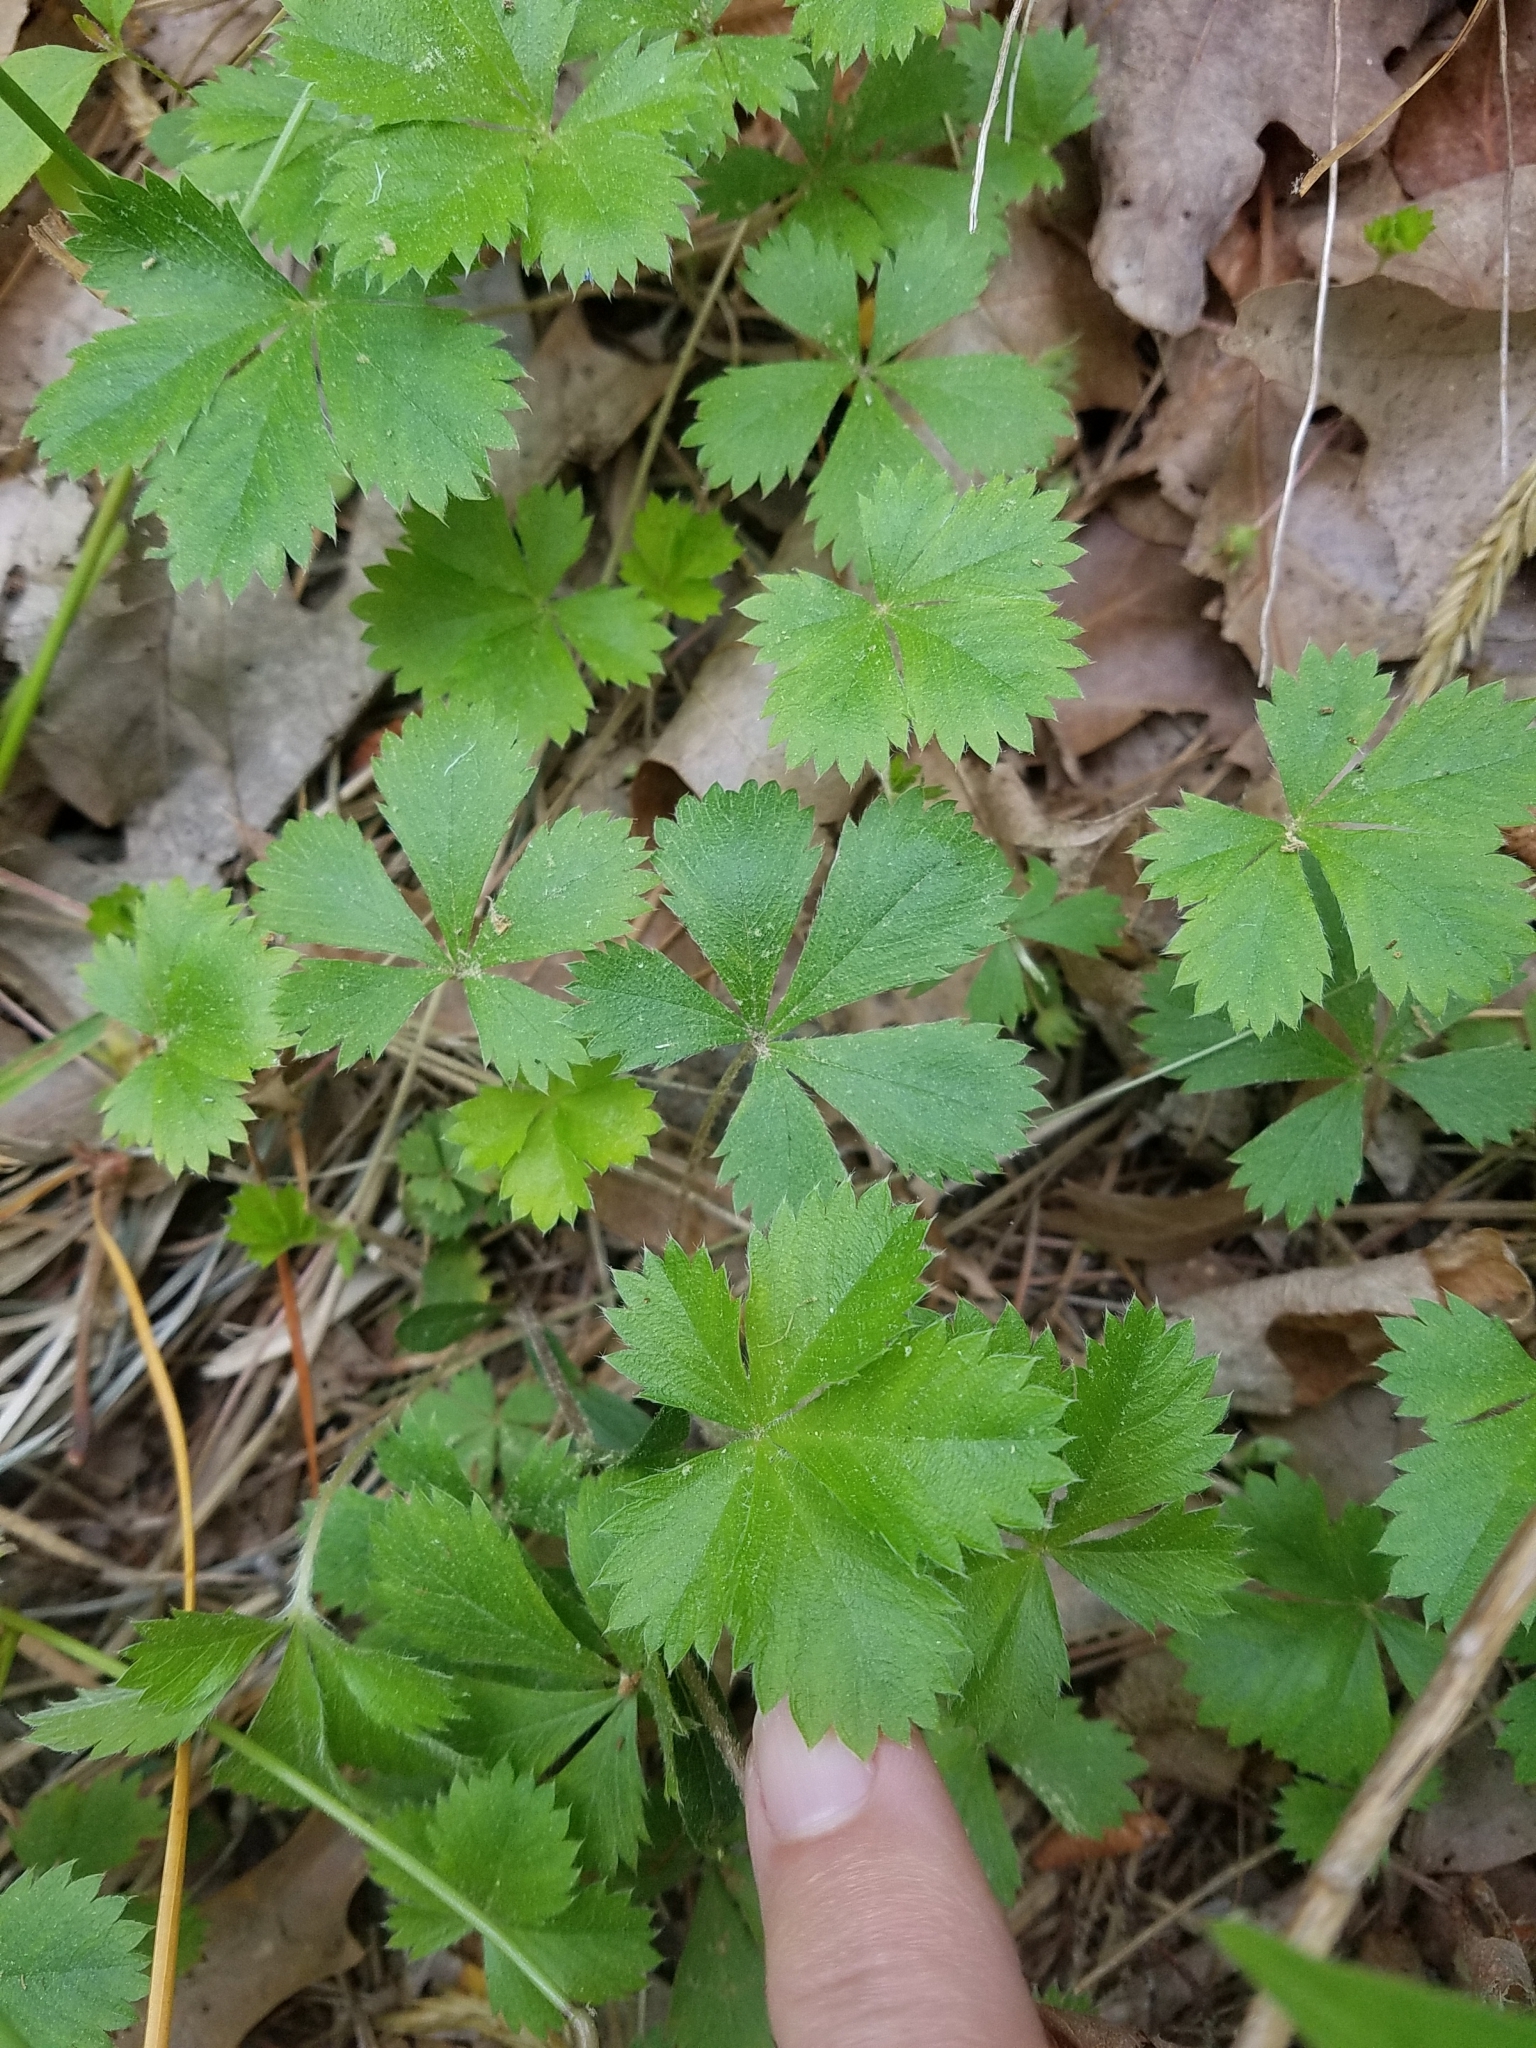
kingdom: Plantae
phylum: Tracheophyta
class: Magnoliopsida
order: Rosales
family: Rosaceae
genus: Potentilla
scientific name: Potentilla canadensis
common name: Canada cinquefoil
